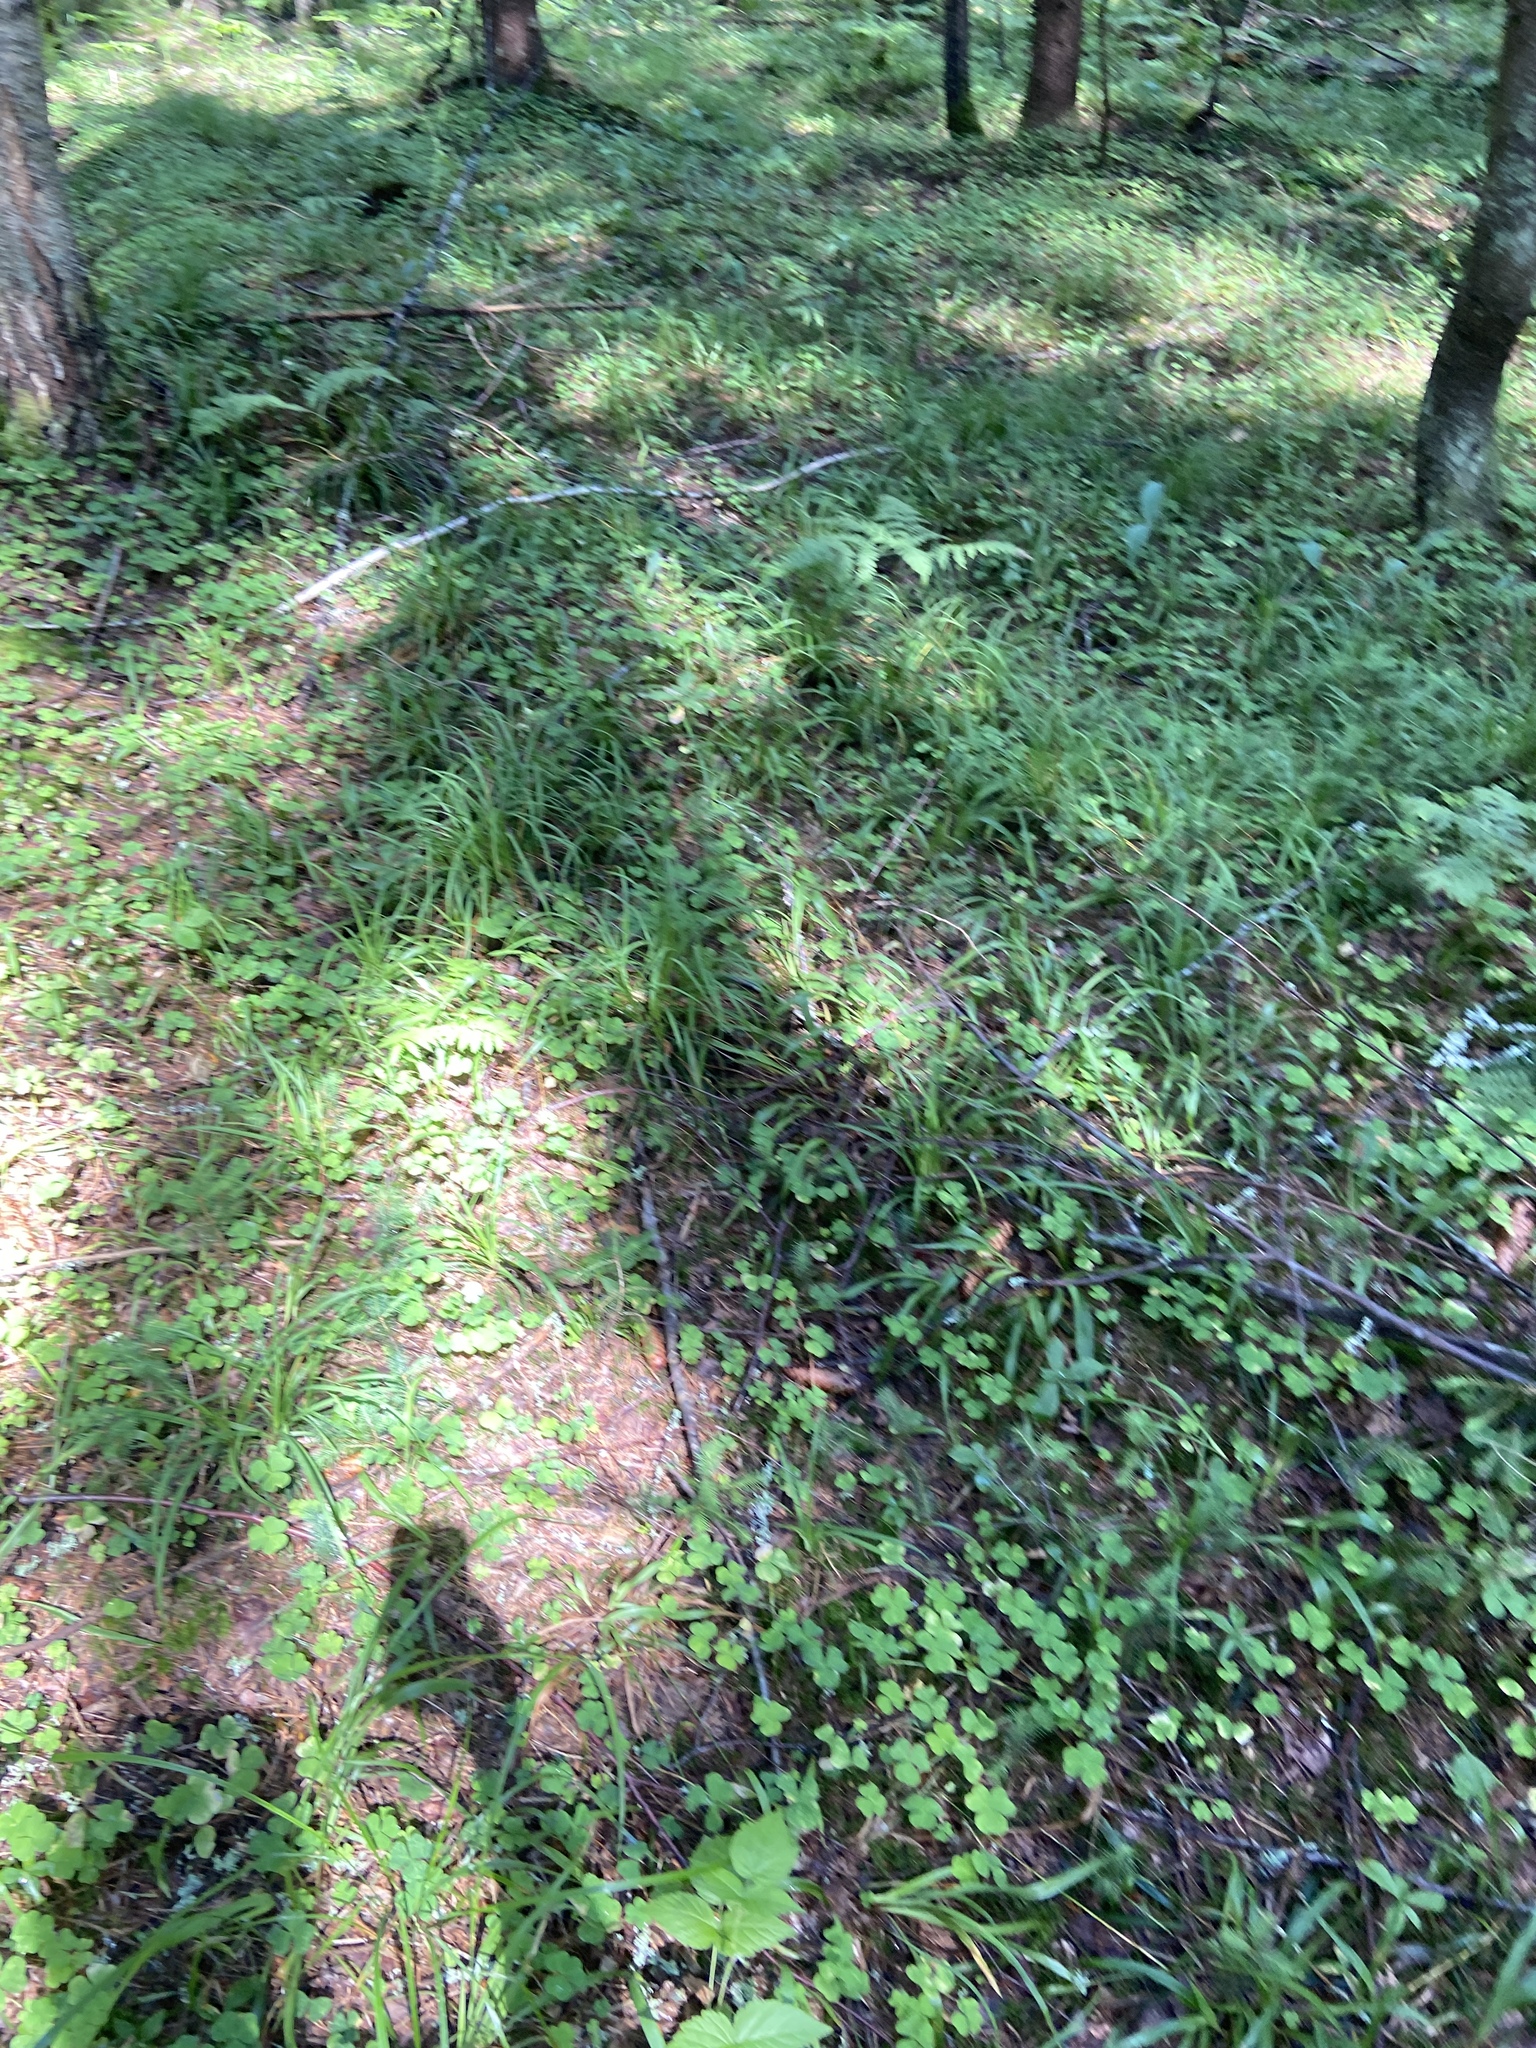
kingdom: Plantae
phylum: Tracheophyta
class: Magnoliopsida
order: Oxalidales
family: Oxalidaceae
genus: Oxalis
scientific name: Oxalis acetosella
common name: Wood-sorrel
